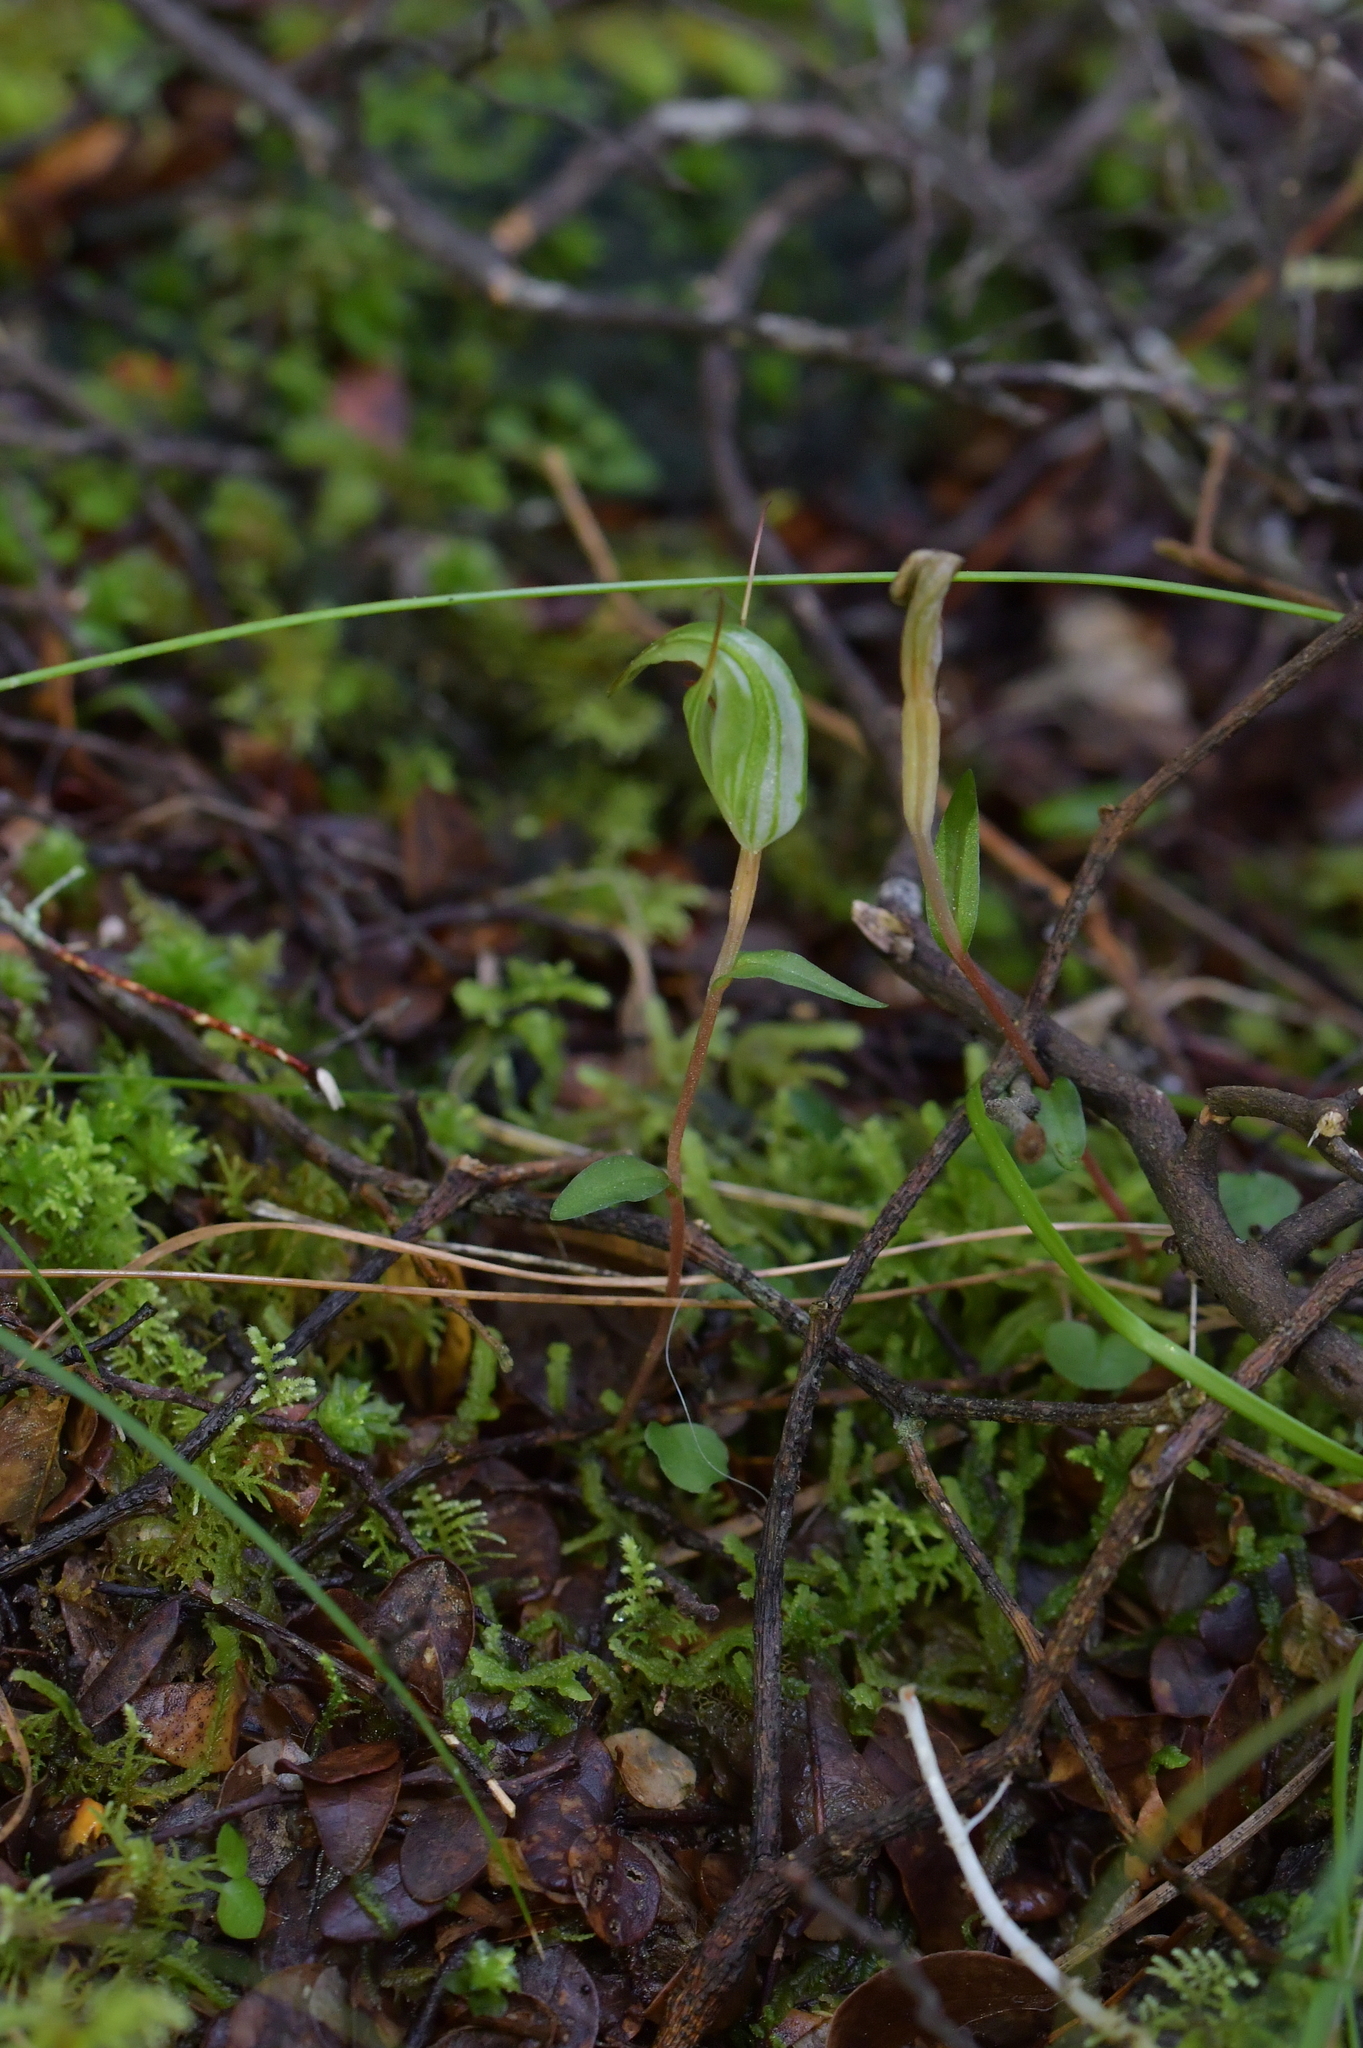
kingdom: Plantae
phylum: Tracheophyta
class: Liliopsida
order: Asparagales
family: Orchidaceae
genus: Pterostylis
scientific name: Pterostylis alobula
